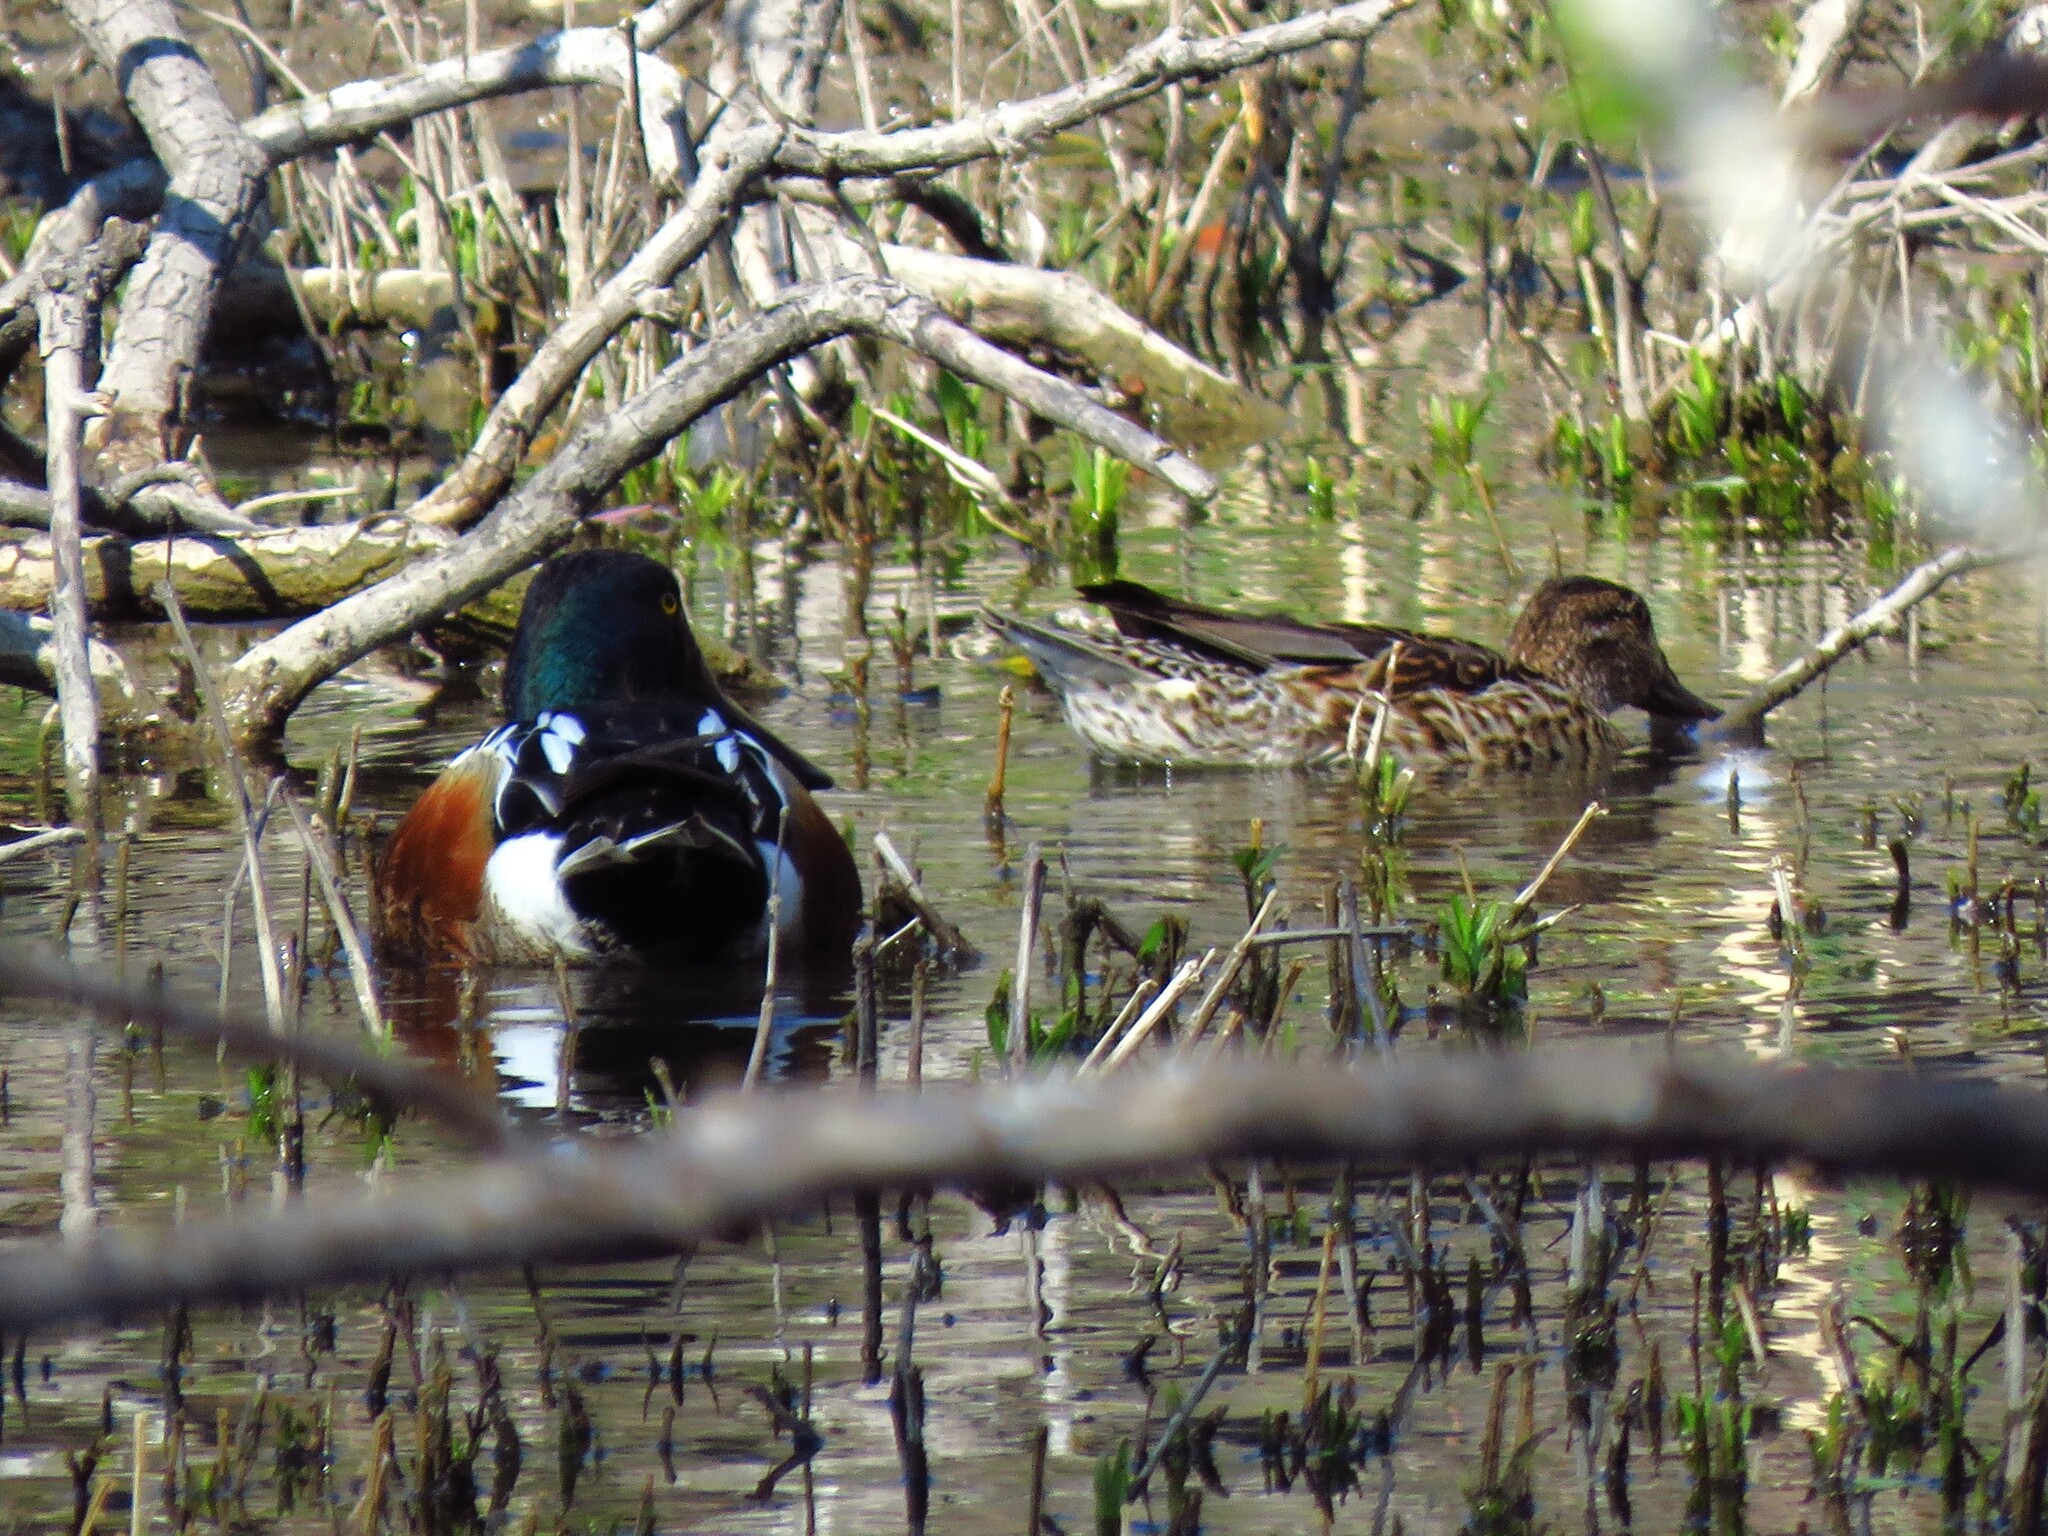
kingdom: Animalia
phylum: Chordata
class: Aves
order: Anseriformes
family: Anatidae
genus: Spatula
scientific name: Spatula clypeata
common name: Northern shoveler
